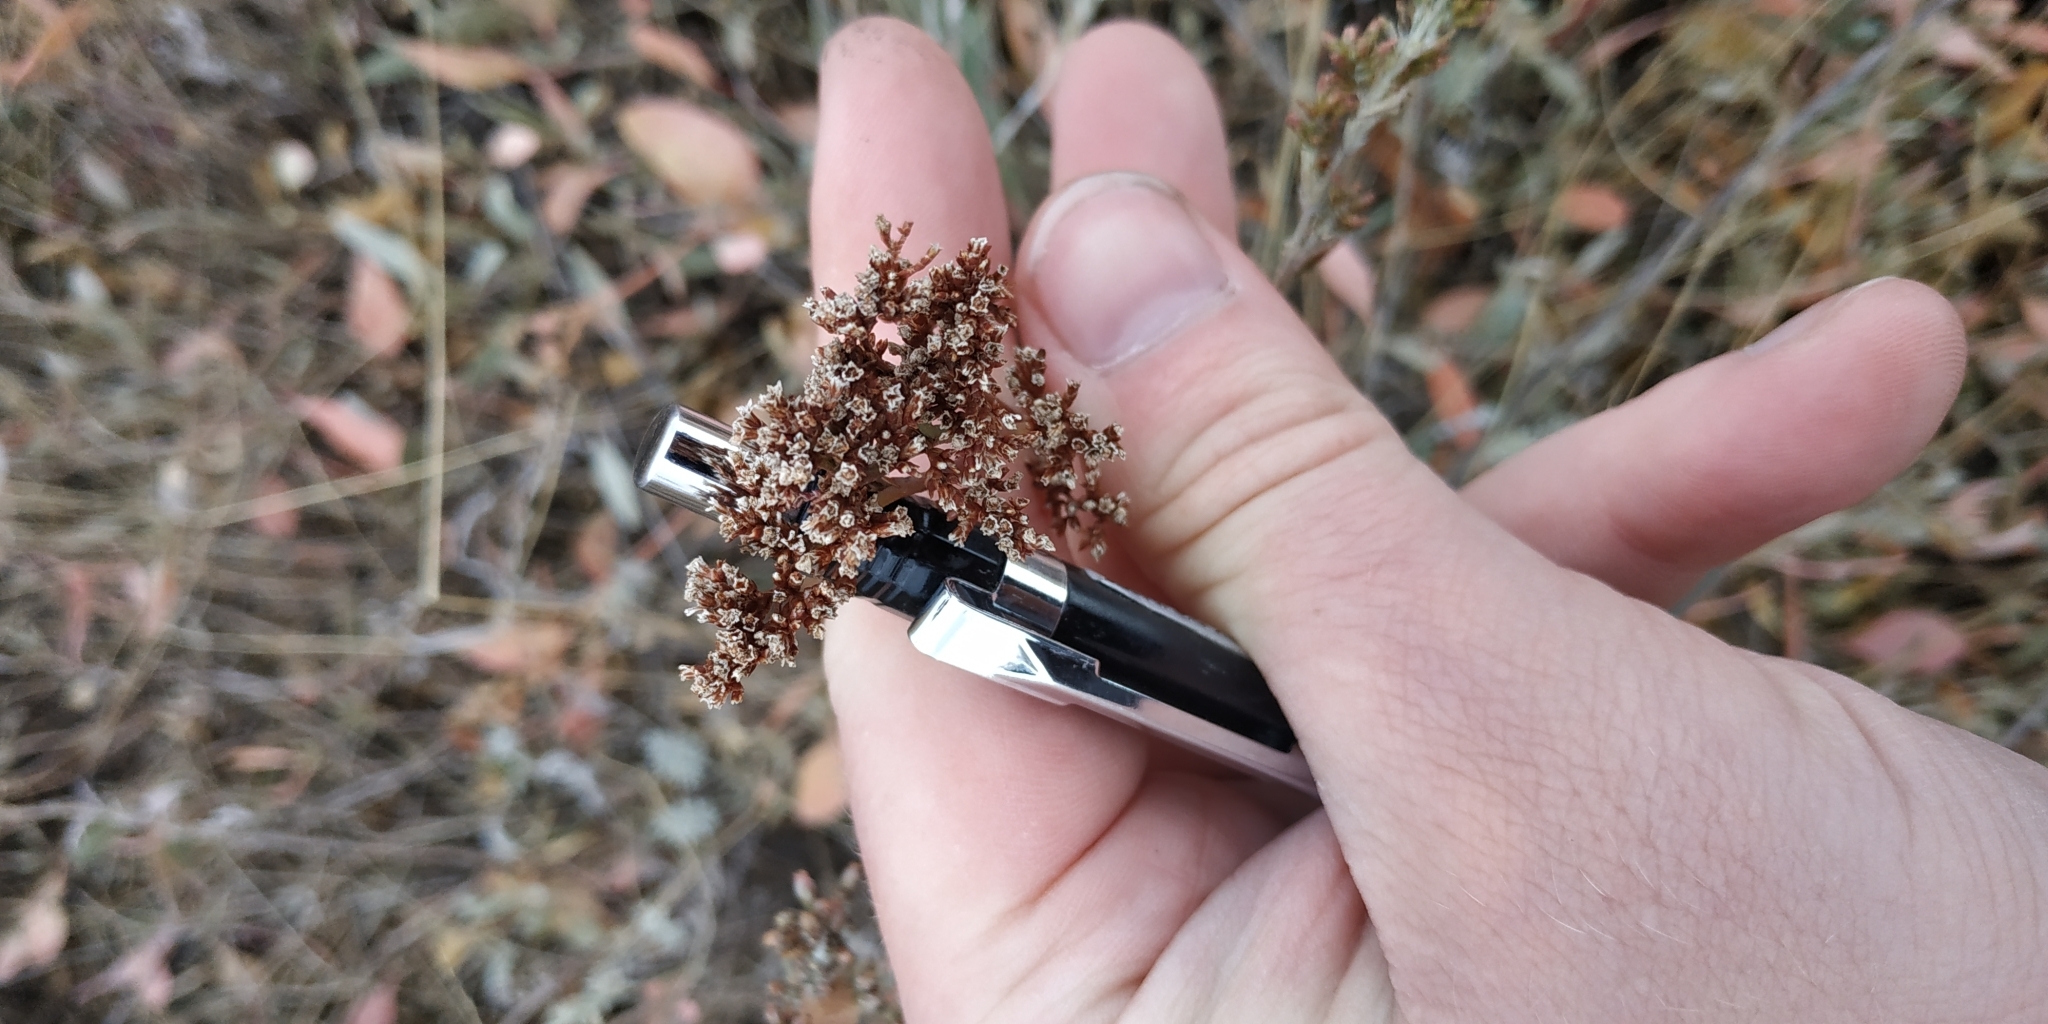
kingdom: Plantae
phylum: Tracheophyta
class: Magnoliopsida
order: Caryophyllales
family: Plumbaginaceae
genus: Limonium
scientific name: Limonium gmelini
